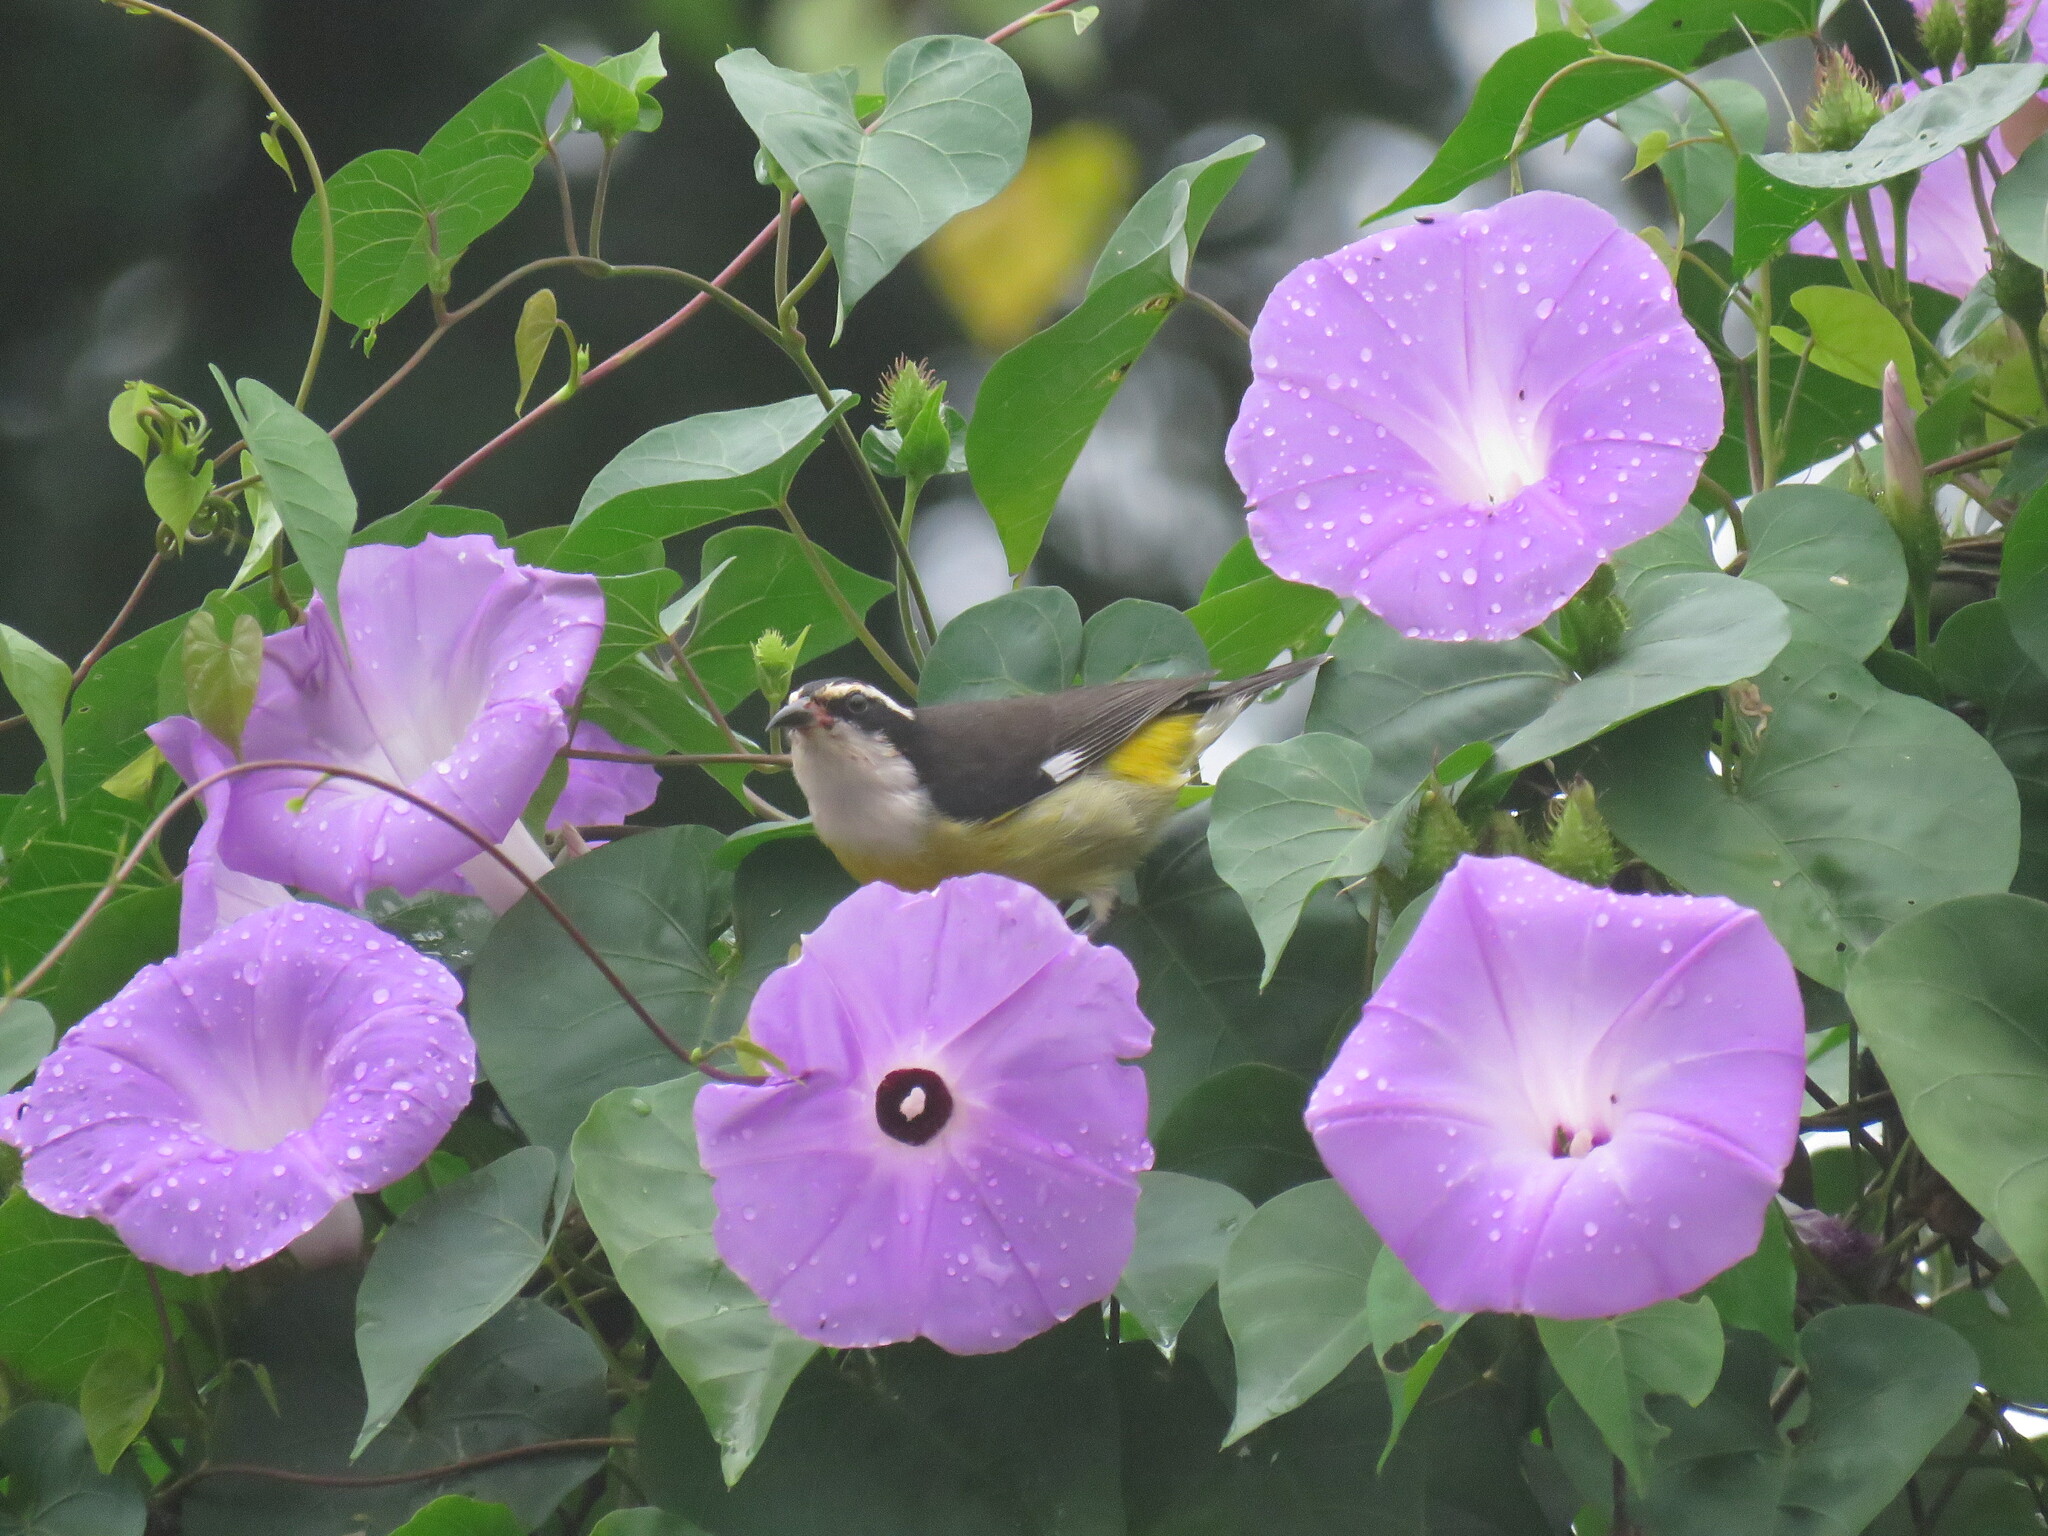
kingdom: Animalia
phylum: Chordata
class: Aves
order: Passeriformes
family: Thraupidae
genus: Coereba
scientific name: Coereba flaveola
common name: Bananaquit
